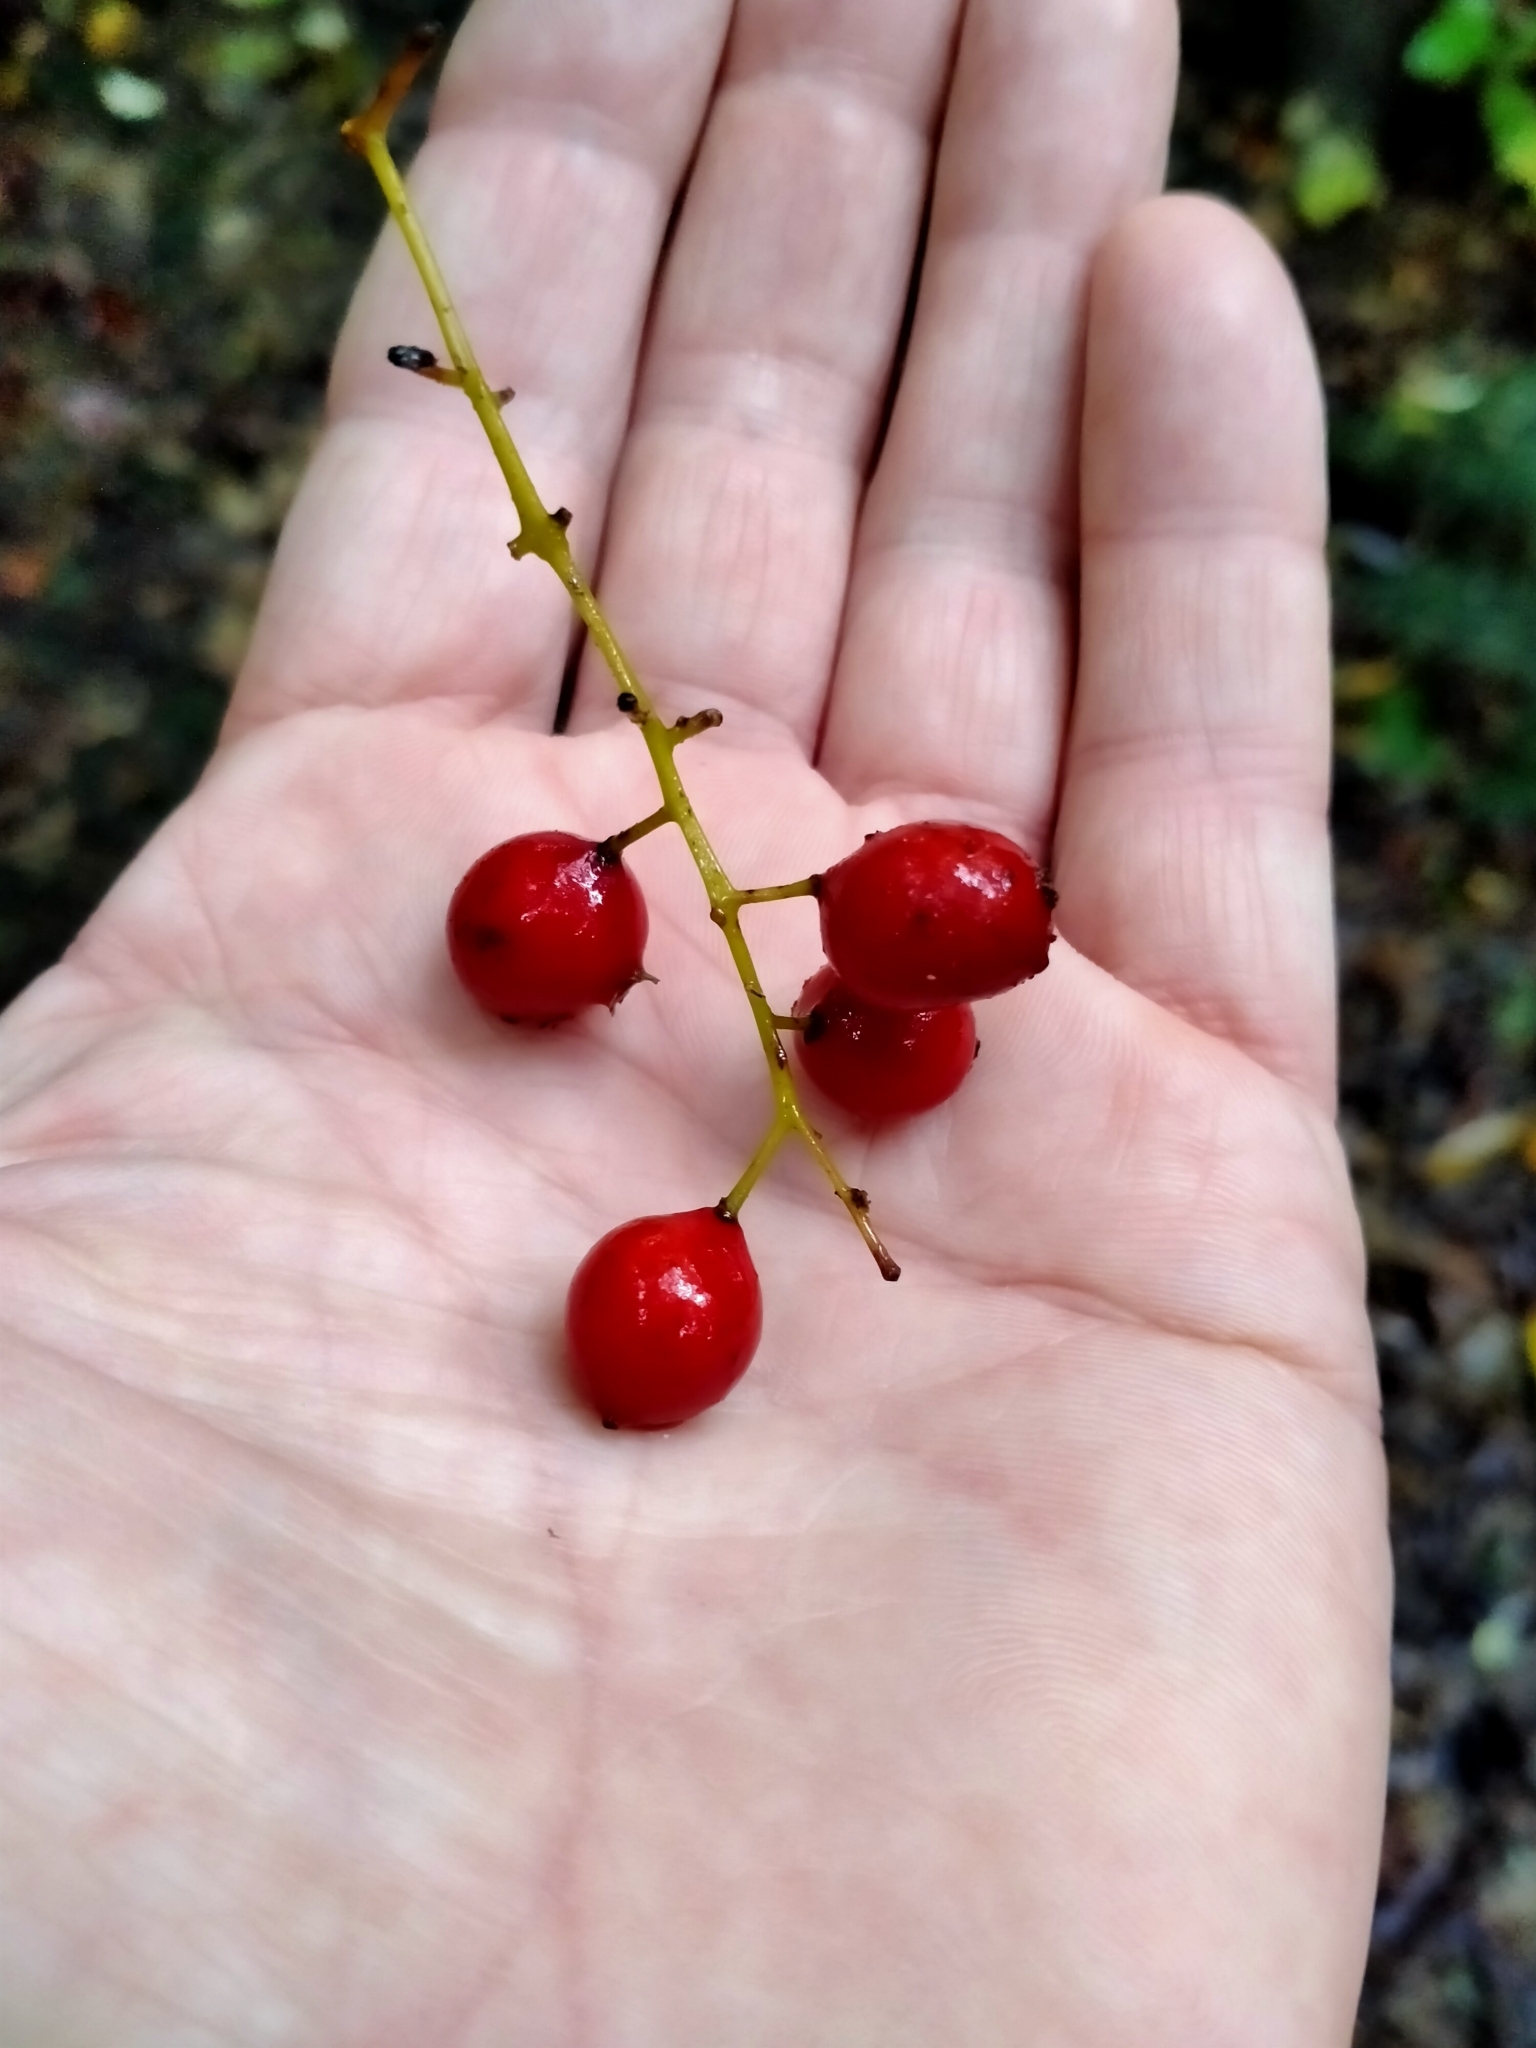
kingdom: Plantae
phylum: Tracheophyta
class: Liliopsida
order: Liliales
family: Ripogonaceae
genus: Ripogonum
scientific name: Ripogonum scandens
